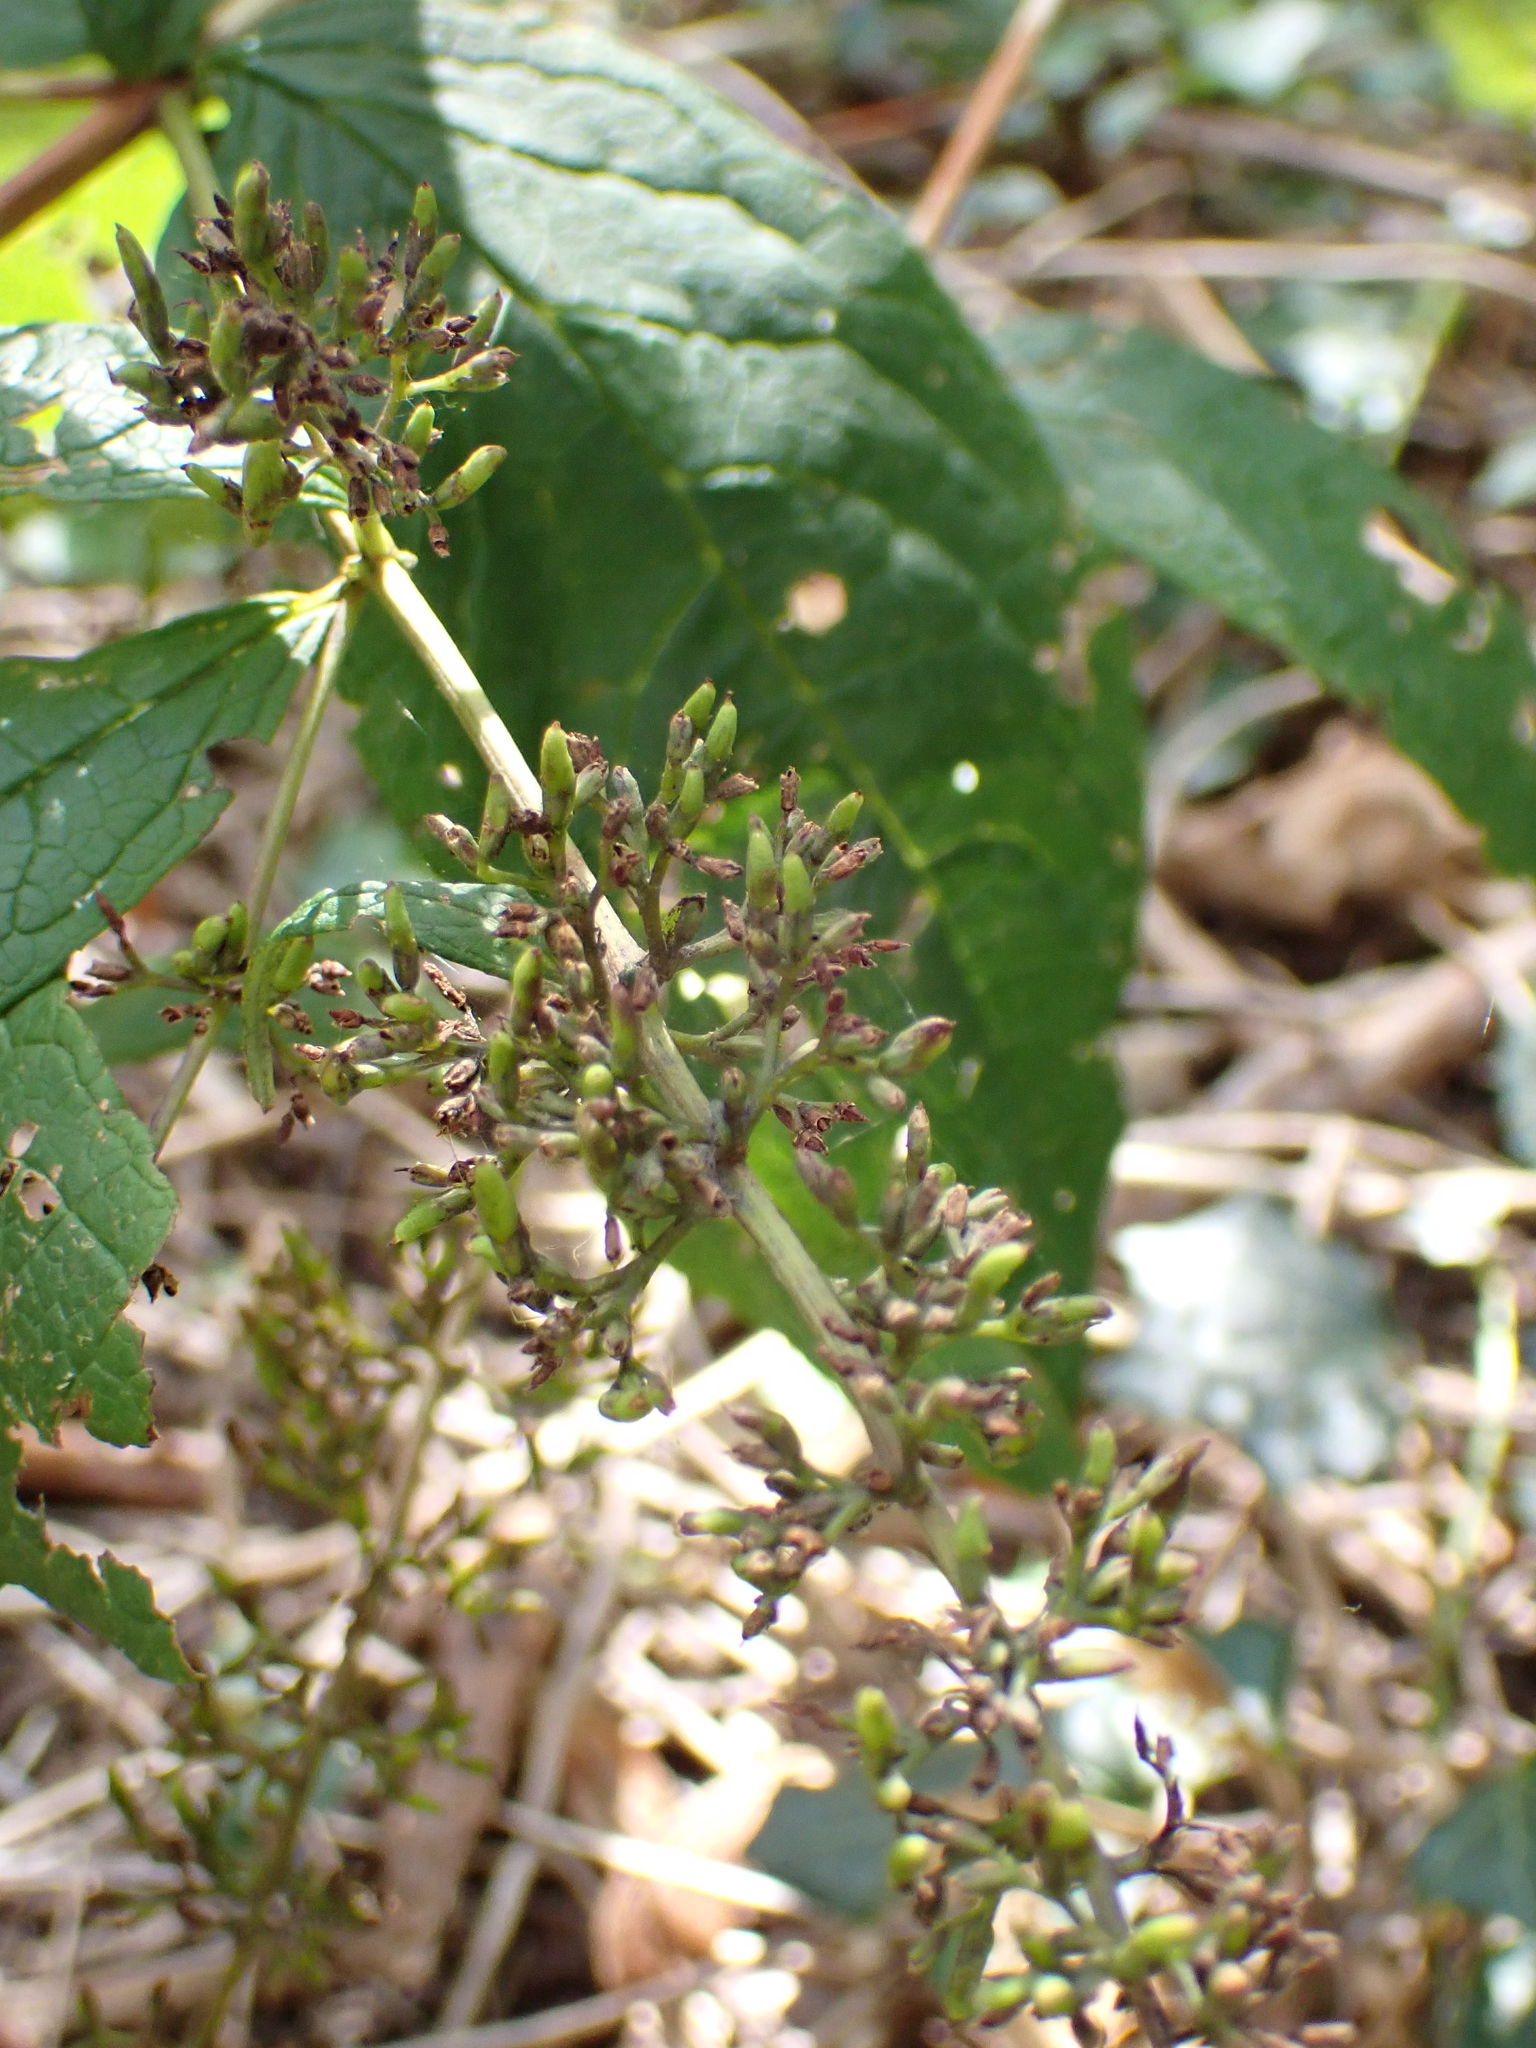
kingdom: Plantae
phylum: Tracheophyta
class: Magnoliopsida
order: Lamiales
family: Scrophulariaceae
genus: Buddleja
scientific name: Buddleja davidii
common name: Butterfly-bush
